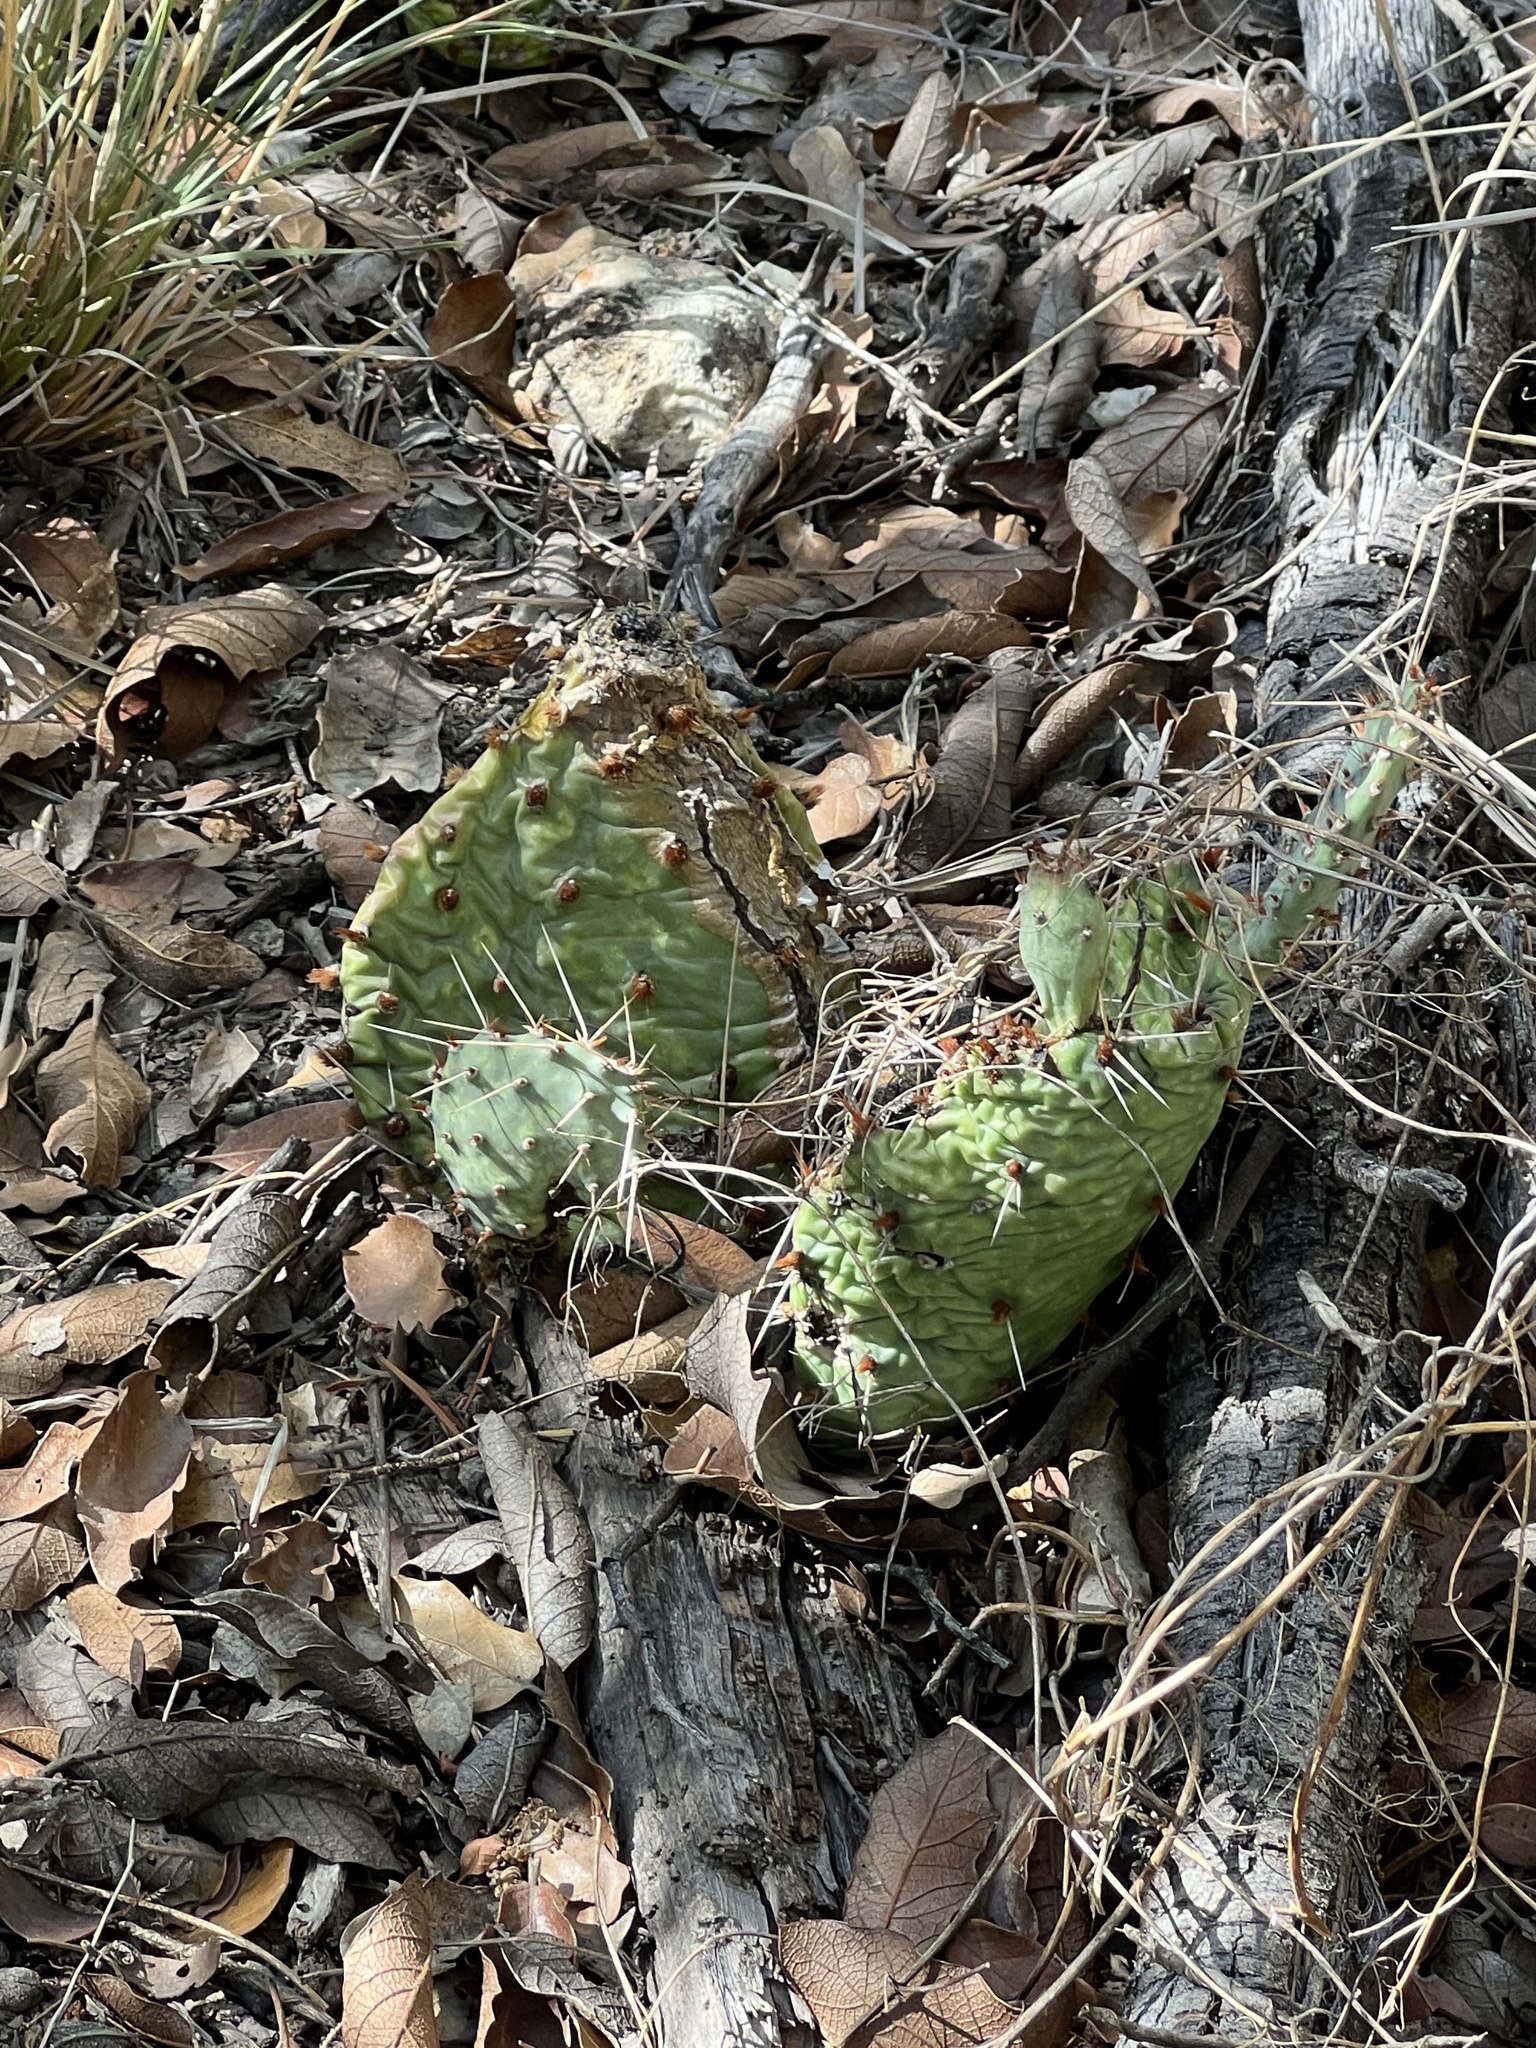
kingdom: Plantae
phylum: Tracheophyta
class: Magnoliopsida
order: Caryophyllales
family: Cactaceae
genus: Opuntia
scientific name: Opuntia macrorhiza
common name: Grassland pricklypear
